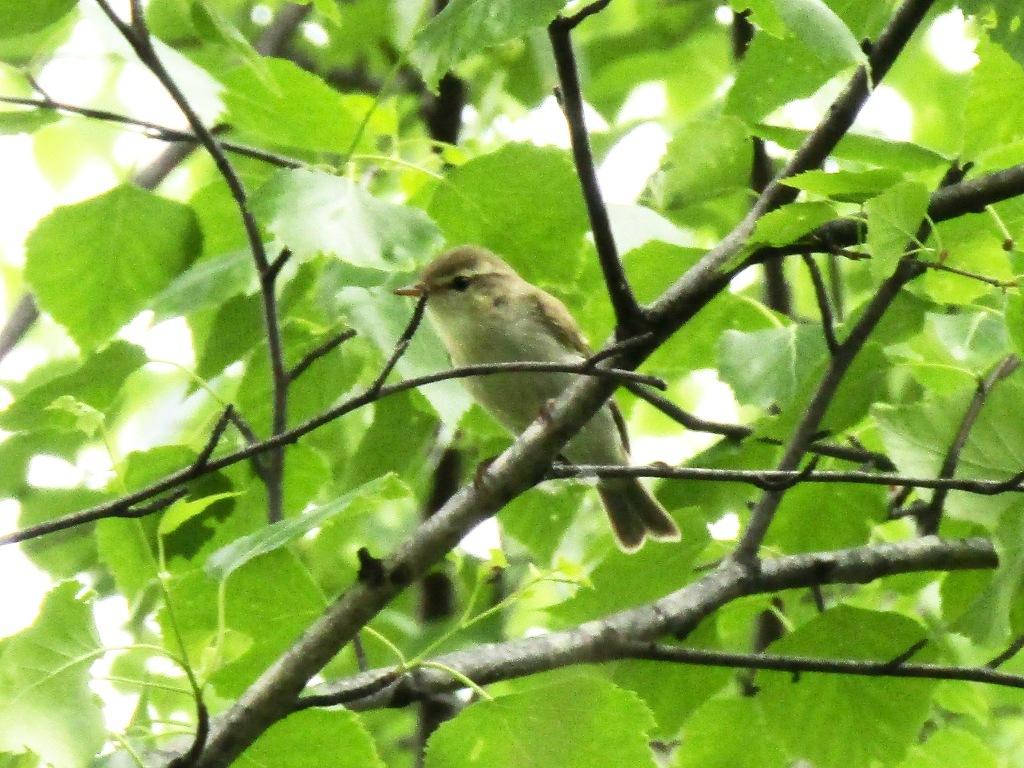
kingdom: Animalia
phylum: Chordata
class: Aves
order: Passeriformes
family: Phylloscopidae
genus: Phylloscopus
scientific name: Phylloscopus trochiloides
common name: Greenish warbler
